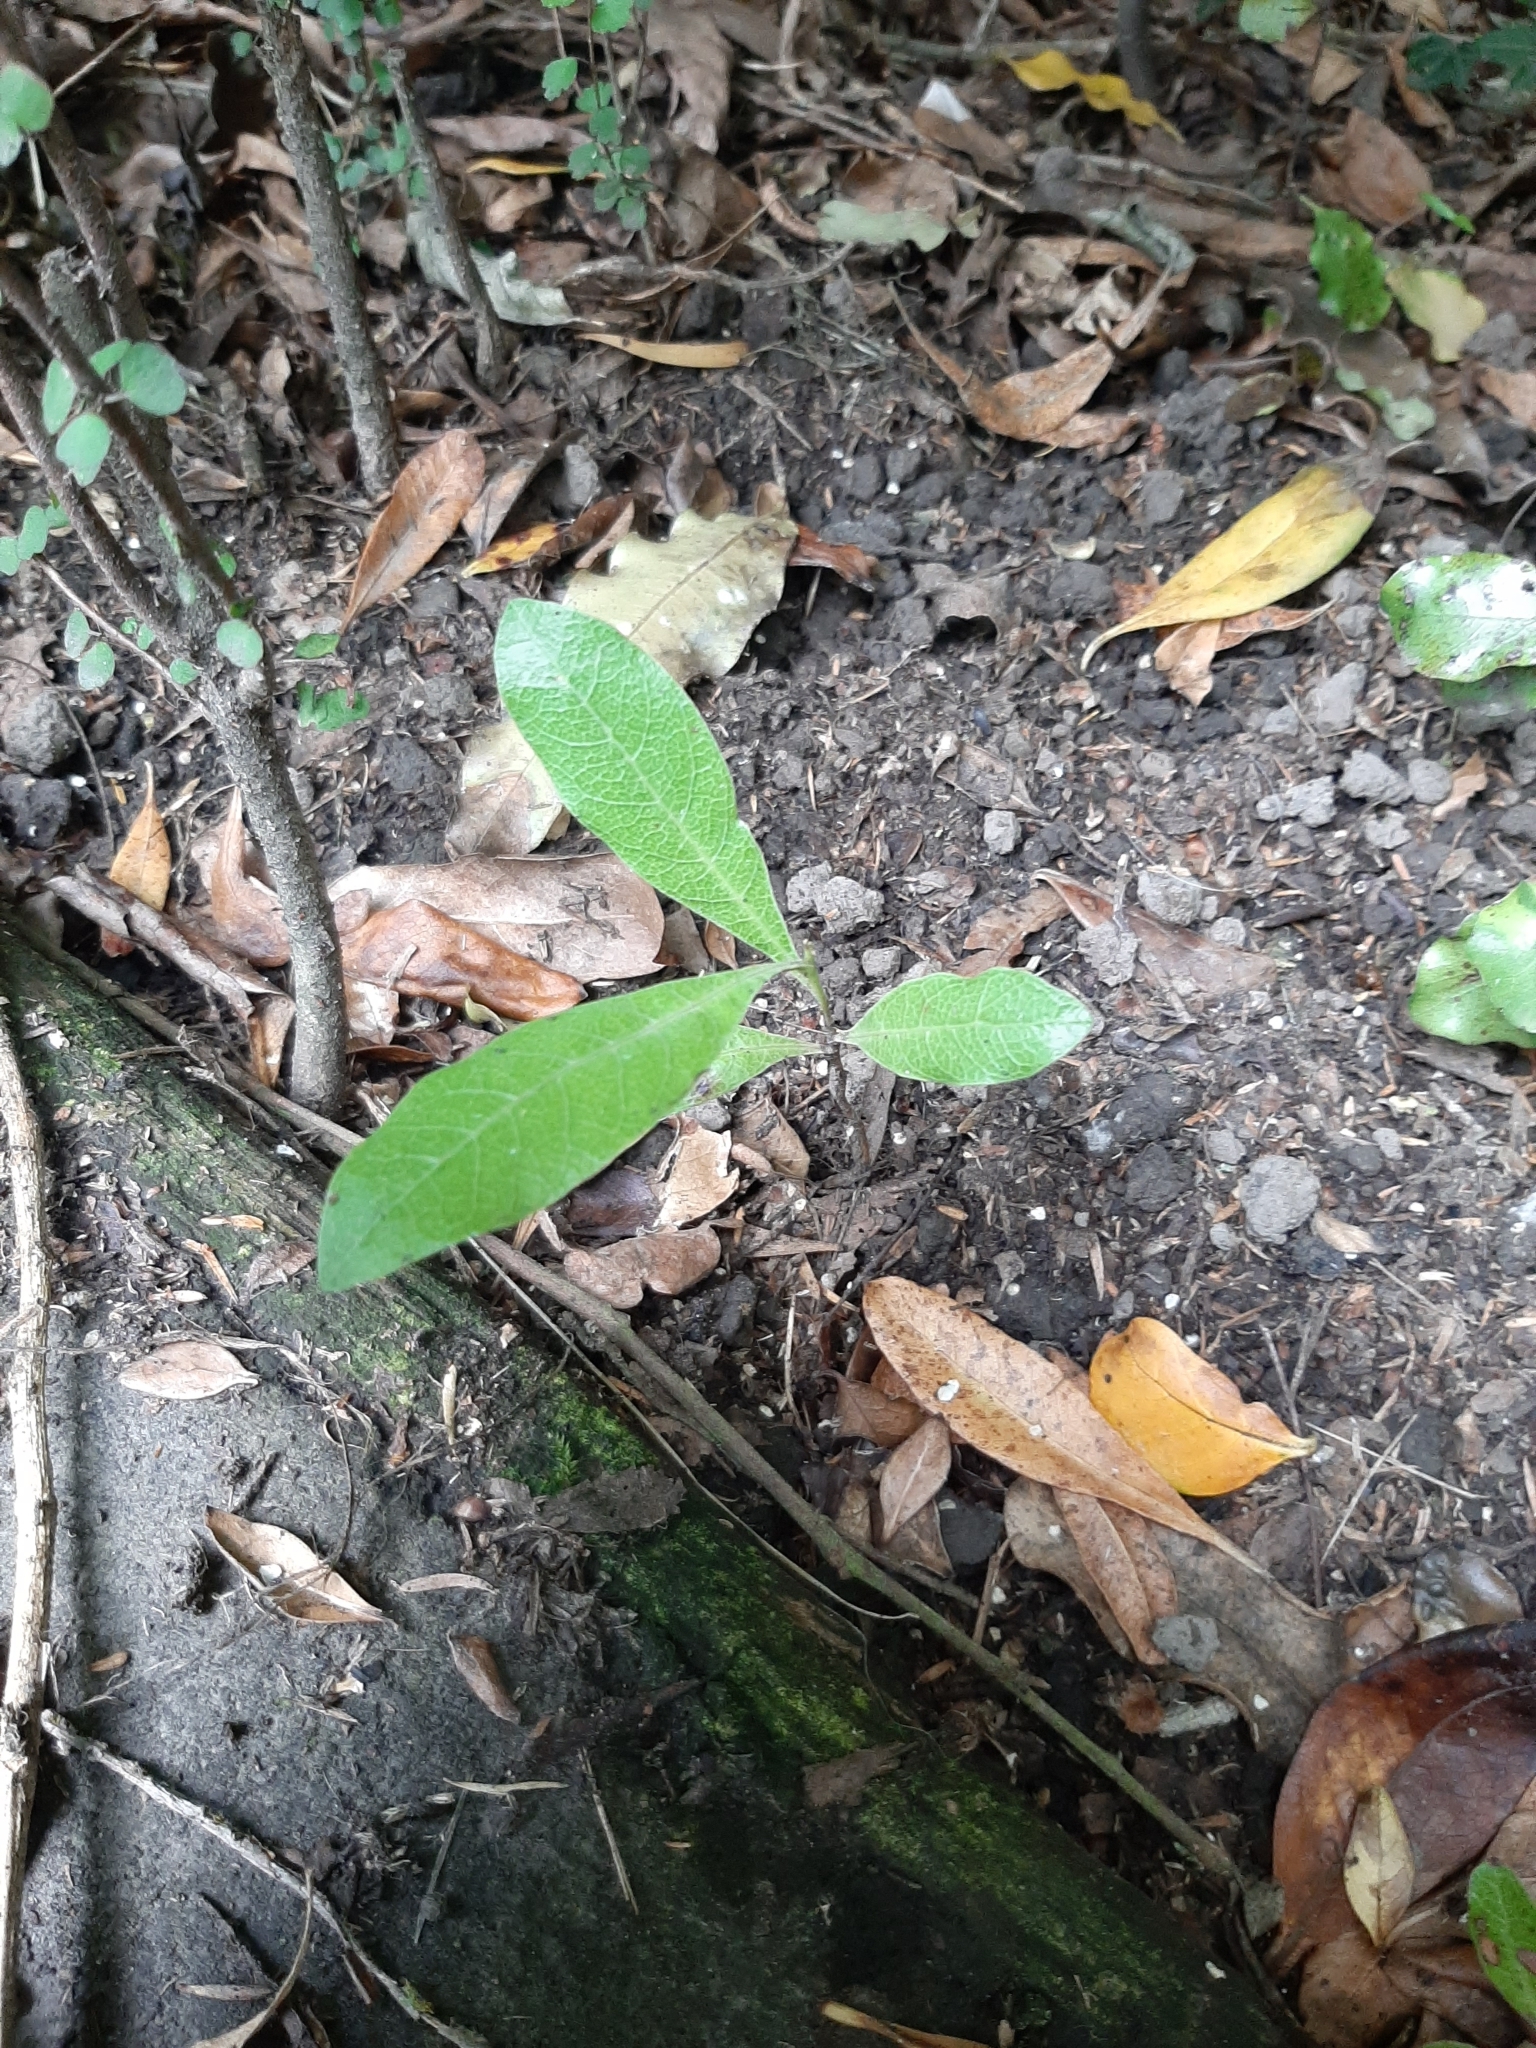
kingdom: Plantae
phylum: Tracheophyta
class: Magnoliopsida
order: Sapindales
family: Sapindaceae
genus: Dodonaea
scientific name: Dodonaea viscosa
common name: Hopbush
